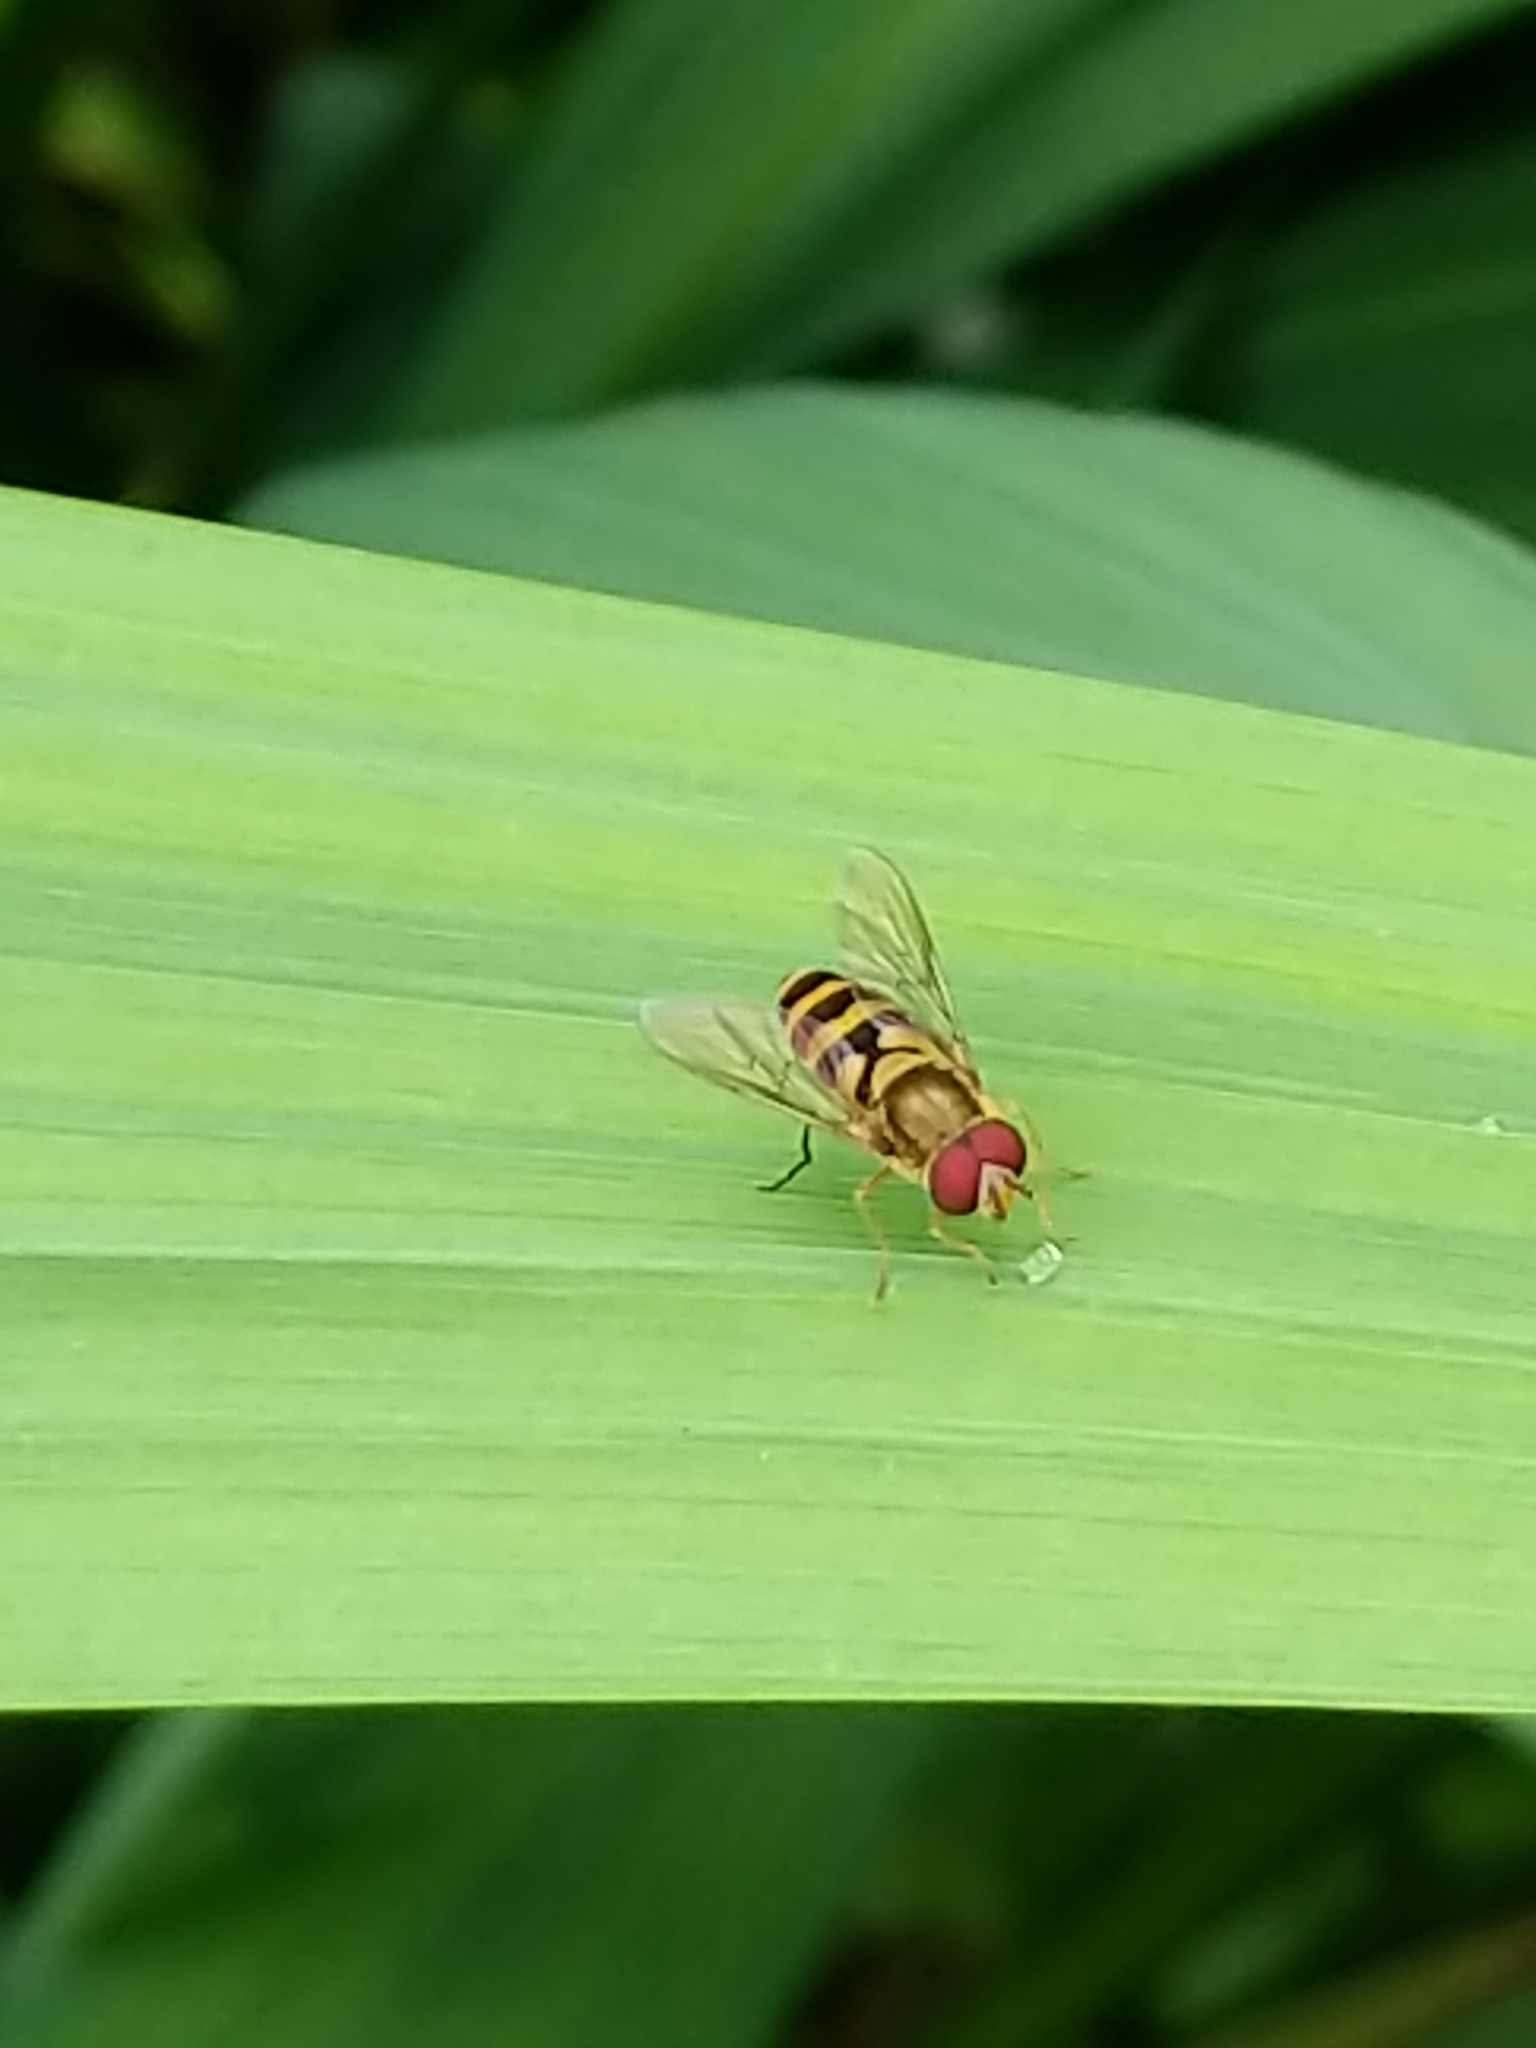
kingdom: Animalia
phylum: Arthropoda
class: Insecta
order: Diptera
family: Syrphidae
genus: Syrphus
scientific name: Syrphus
